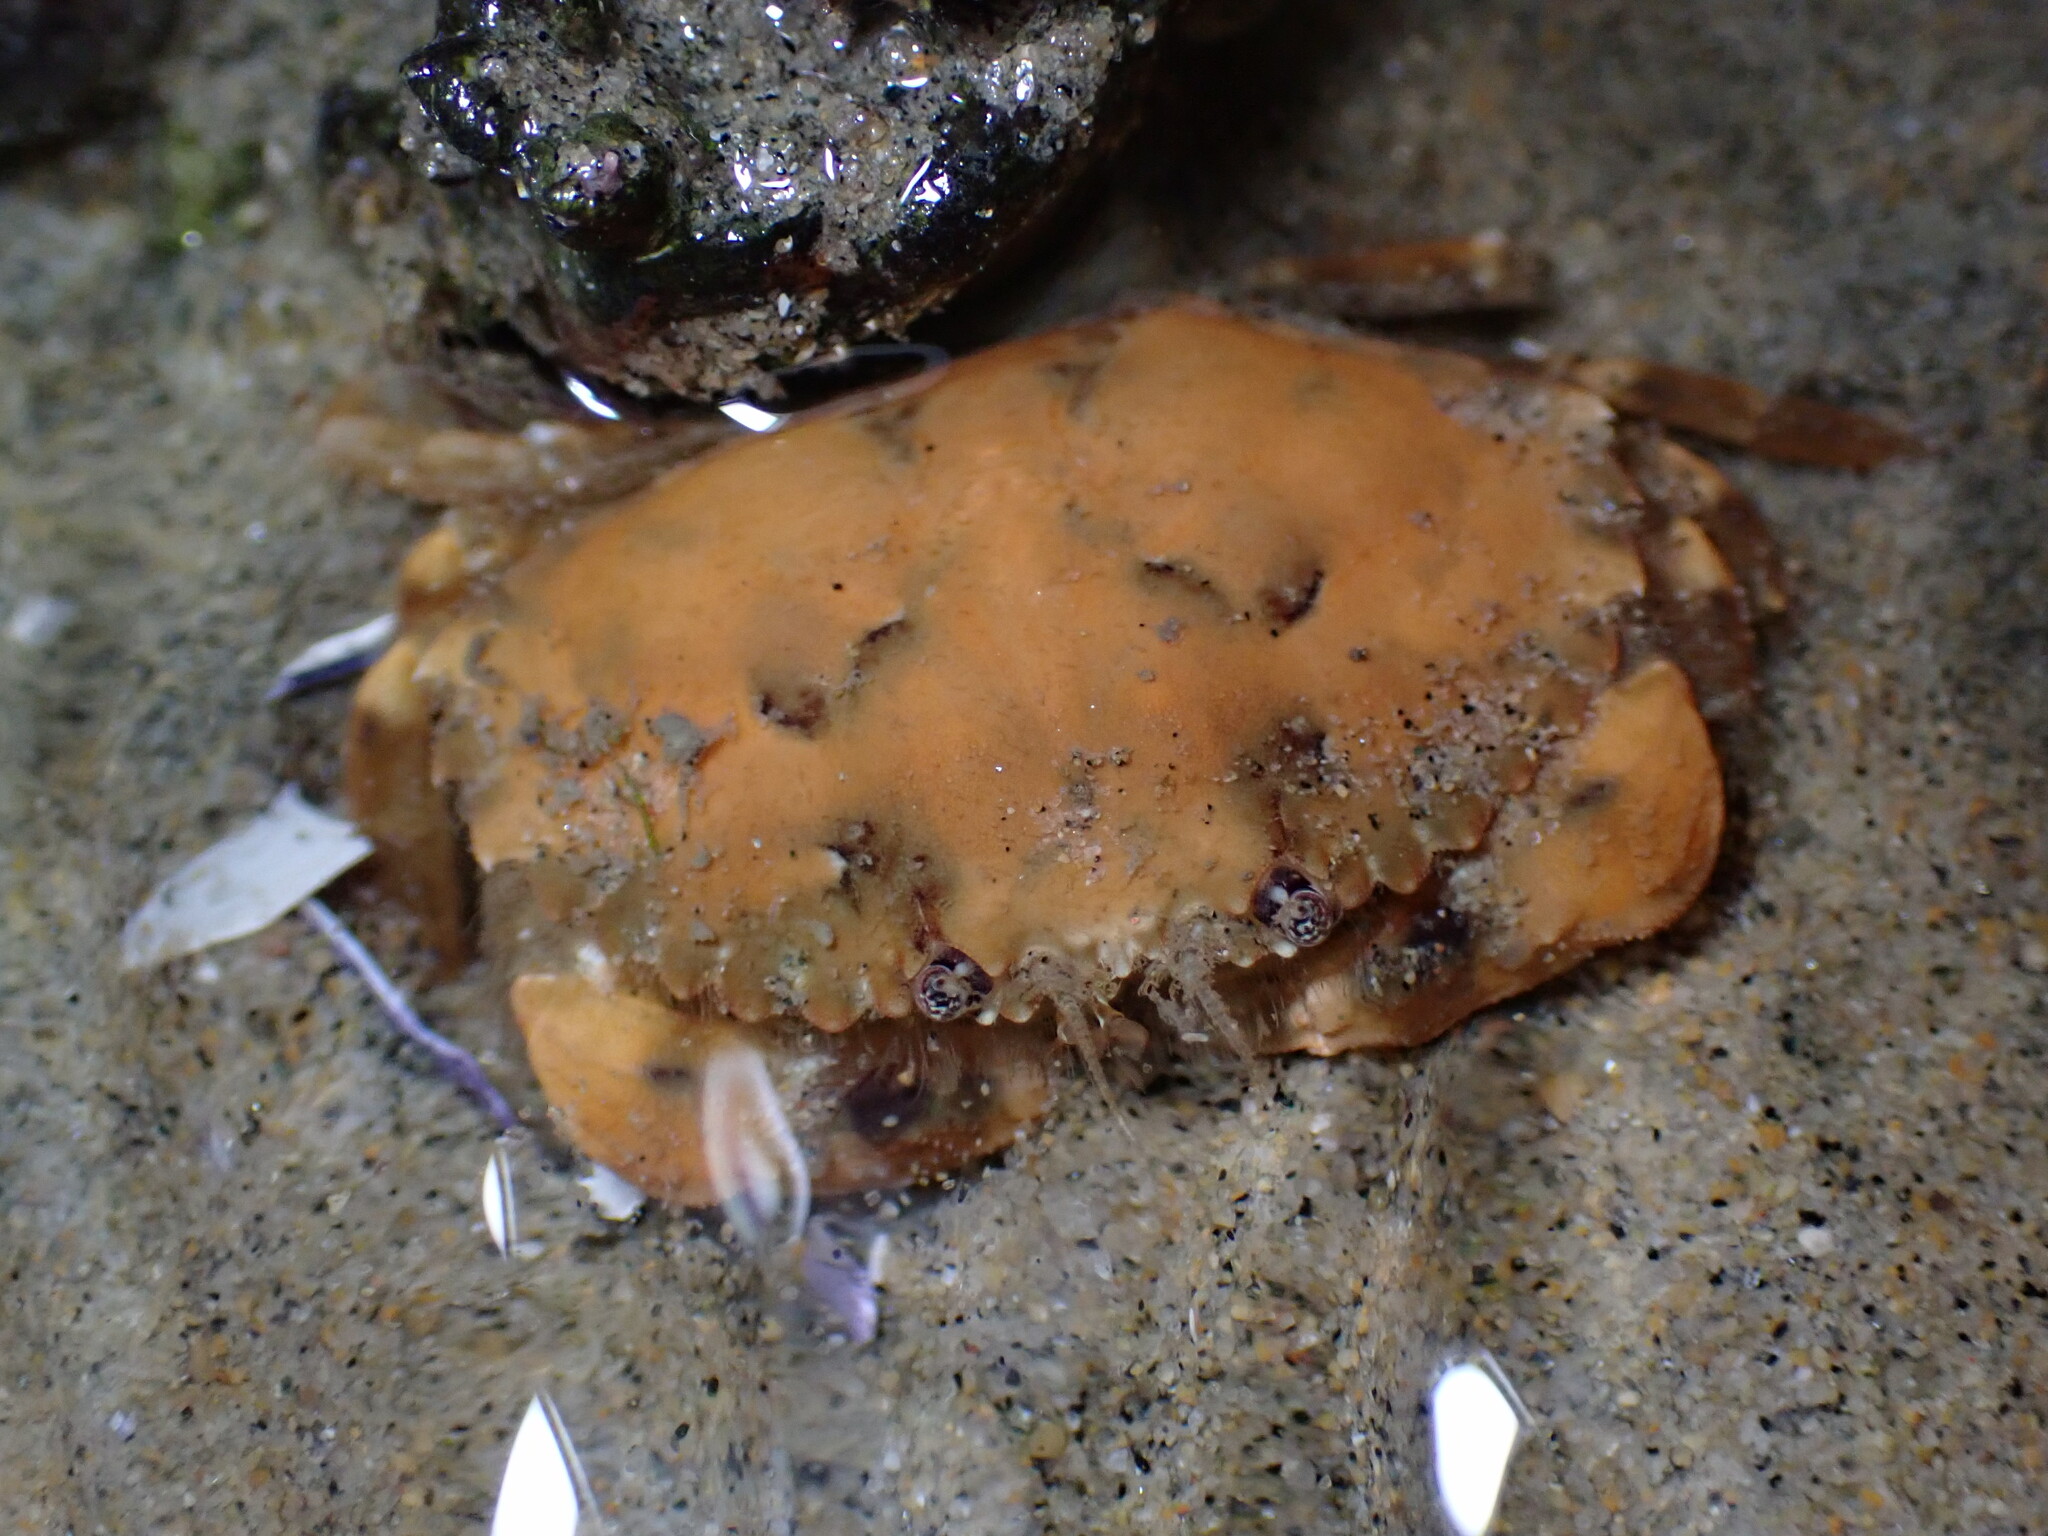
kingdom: Animalia
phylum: Arthropoda
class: Malacostraca
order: Decapoda
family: Cancridae
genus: Metacarcinus
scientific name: Metacarcinus anthonyi
